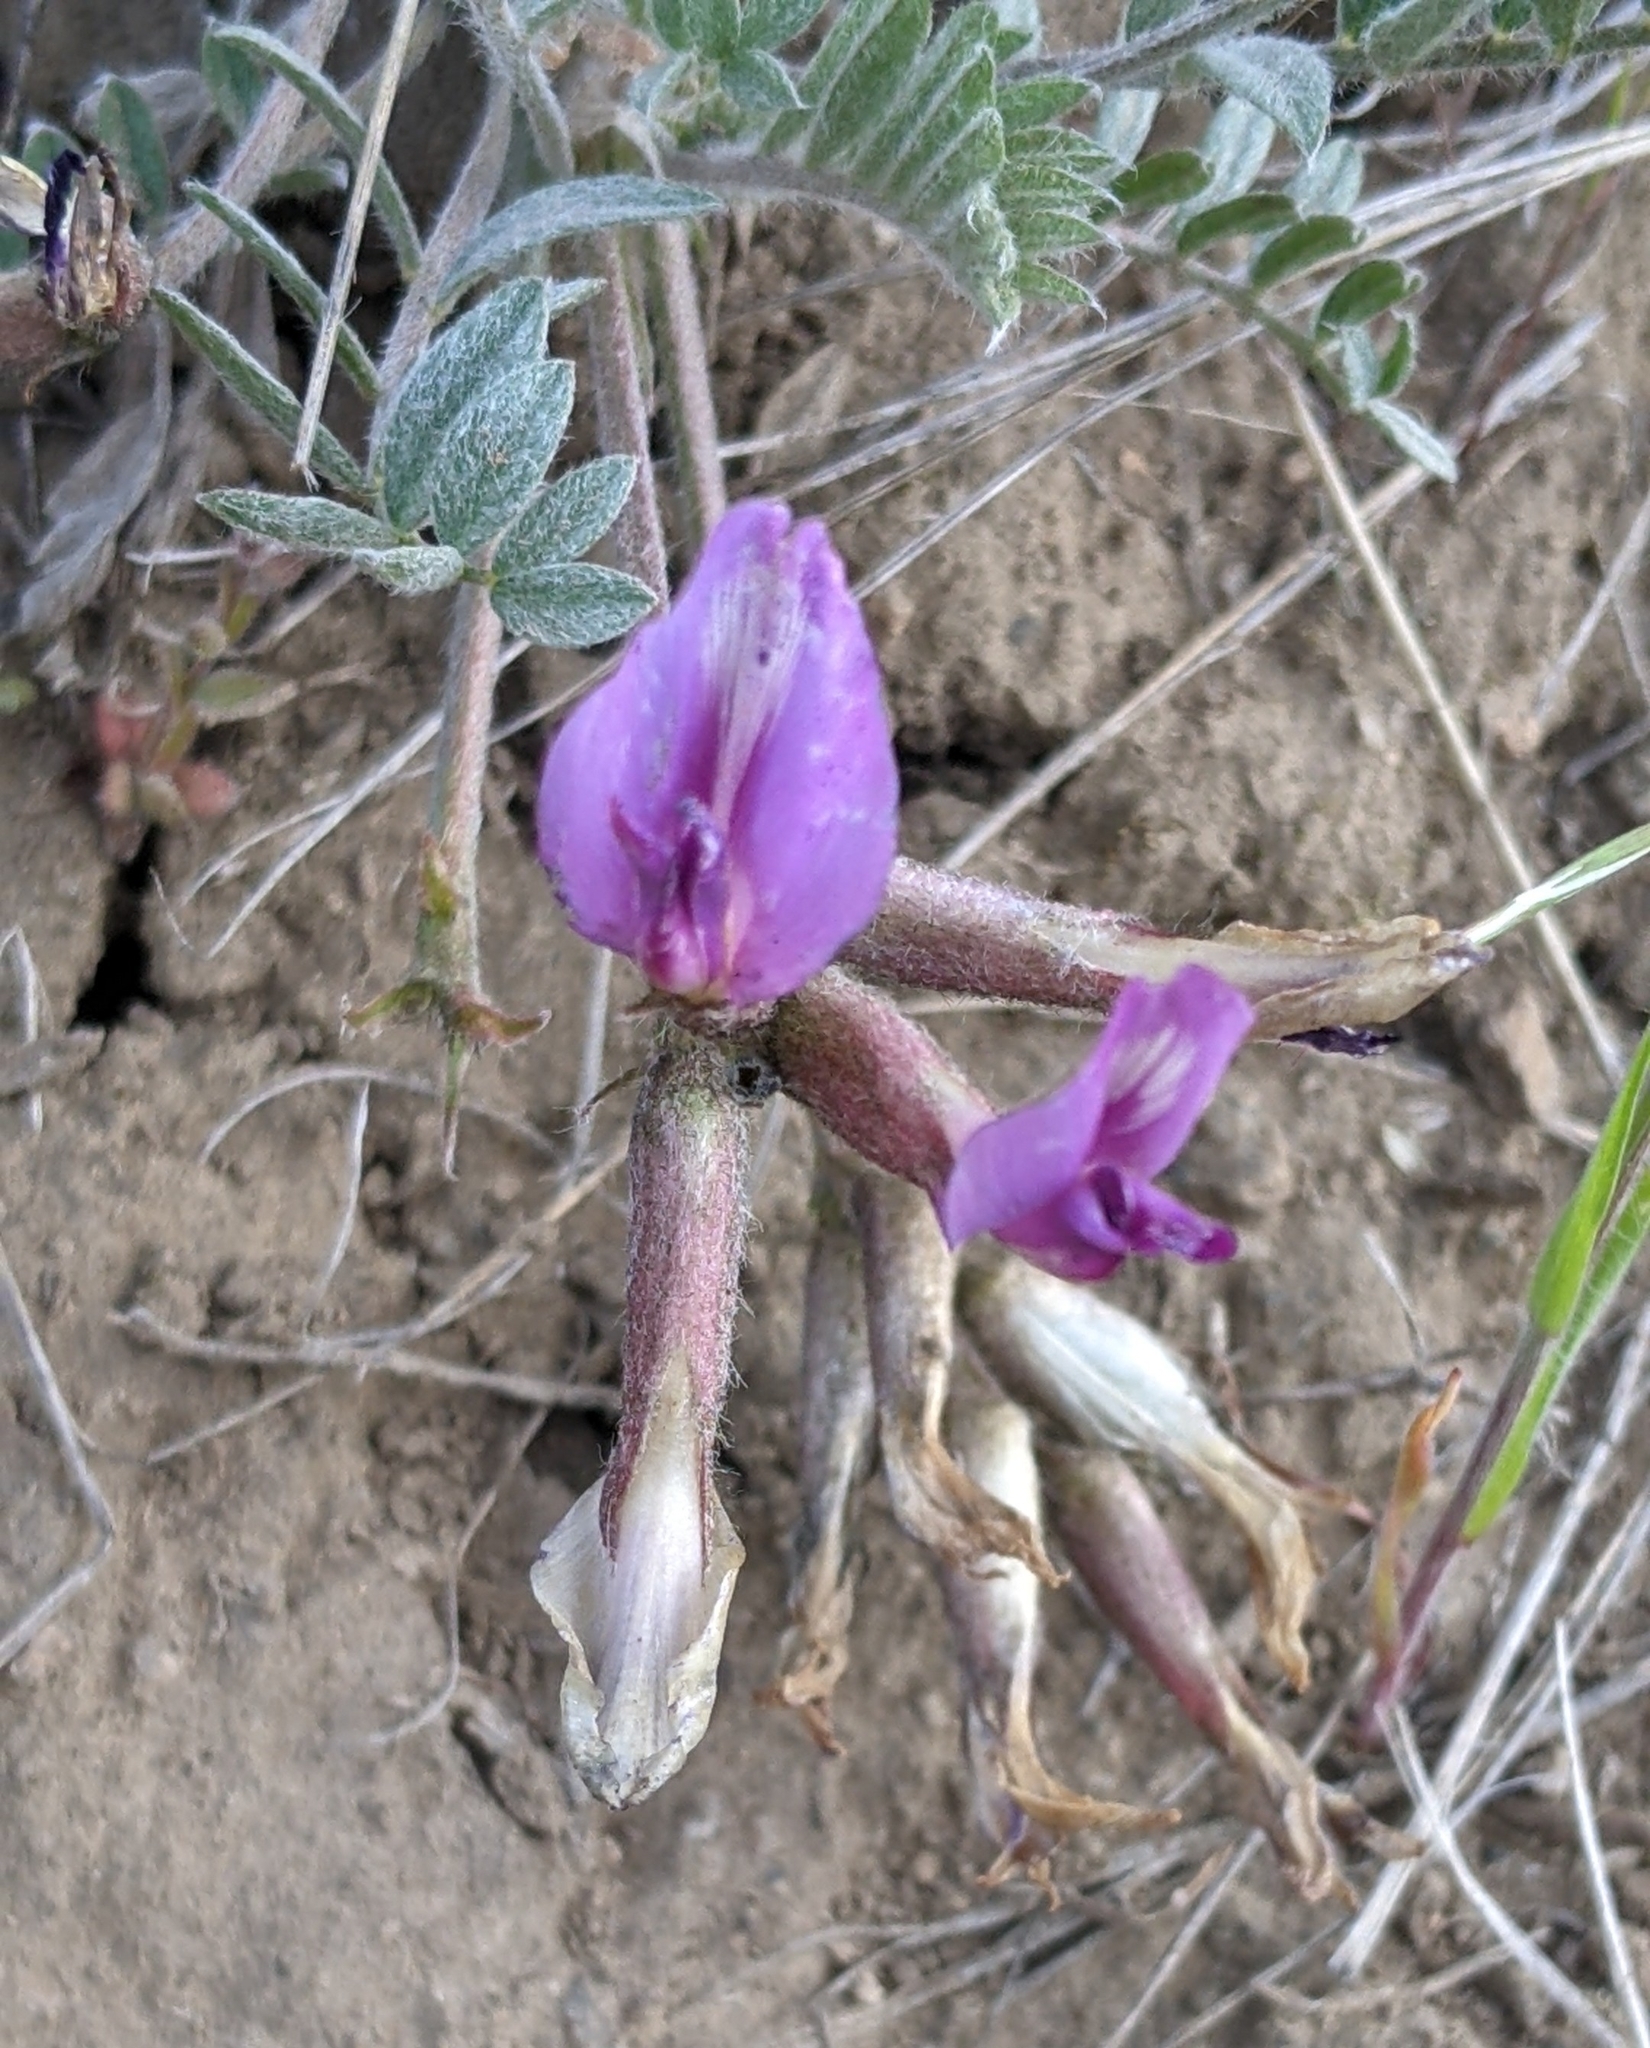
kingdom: Plantae
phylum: Tracheophyta
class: Magnoliopsida
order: Fabales
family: Fabaceae
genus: Astragalus
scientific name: Astragalus purshii
